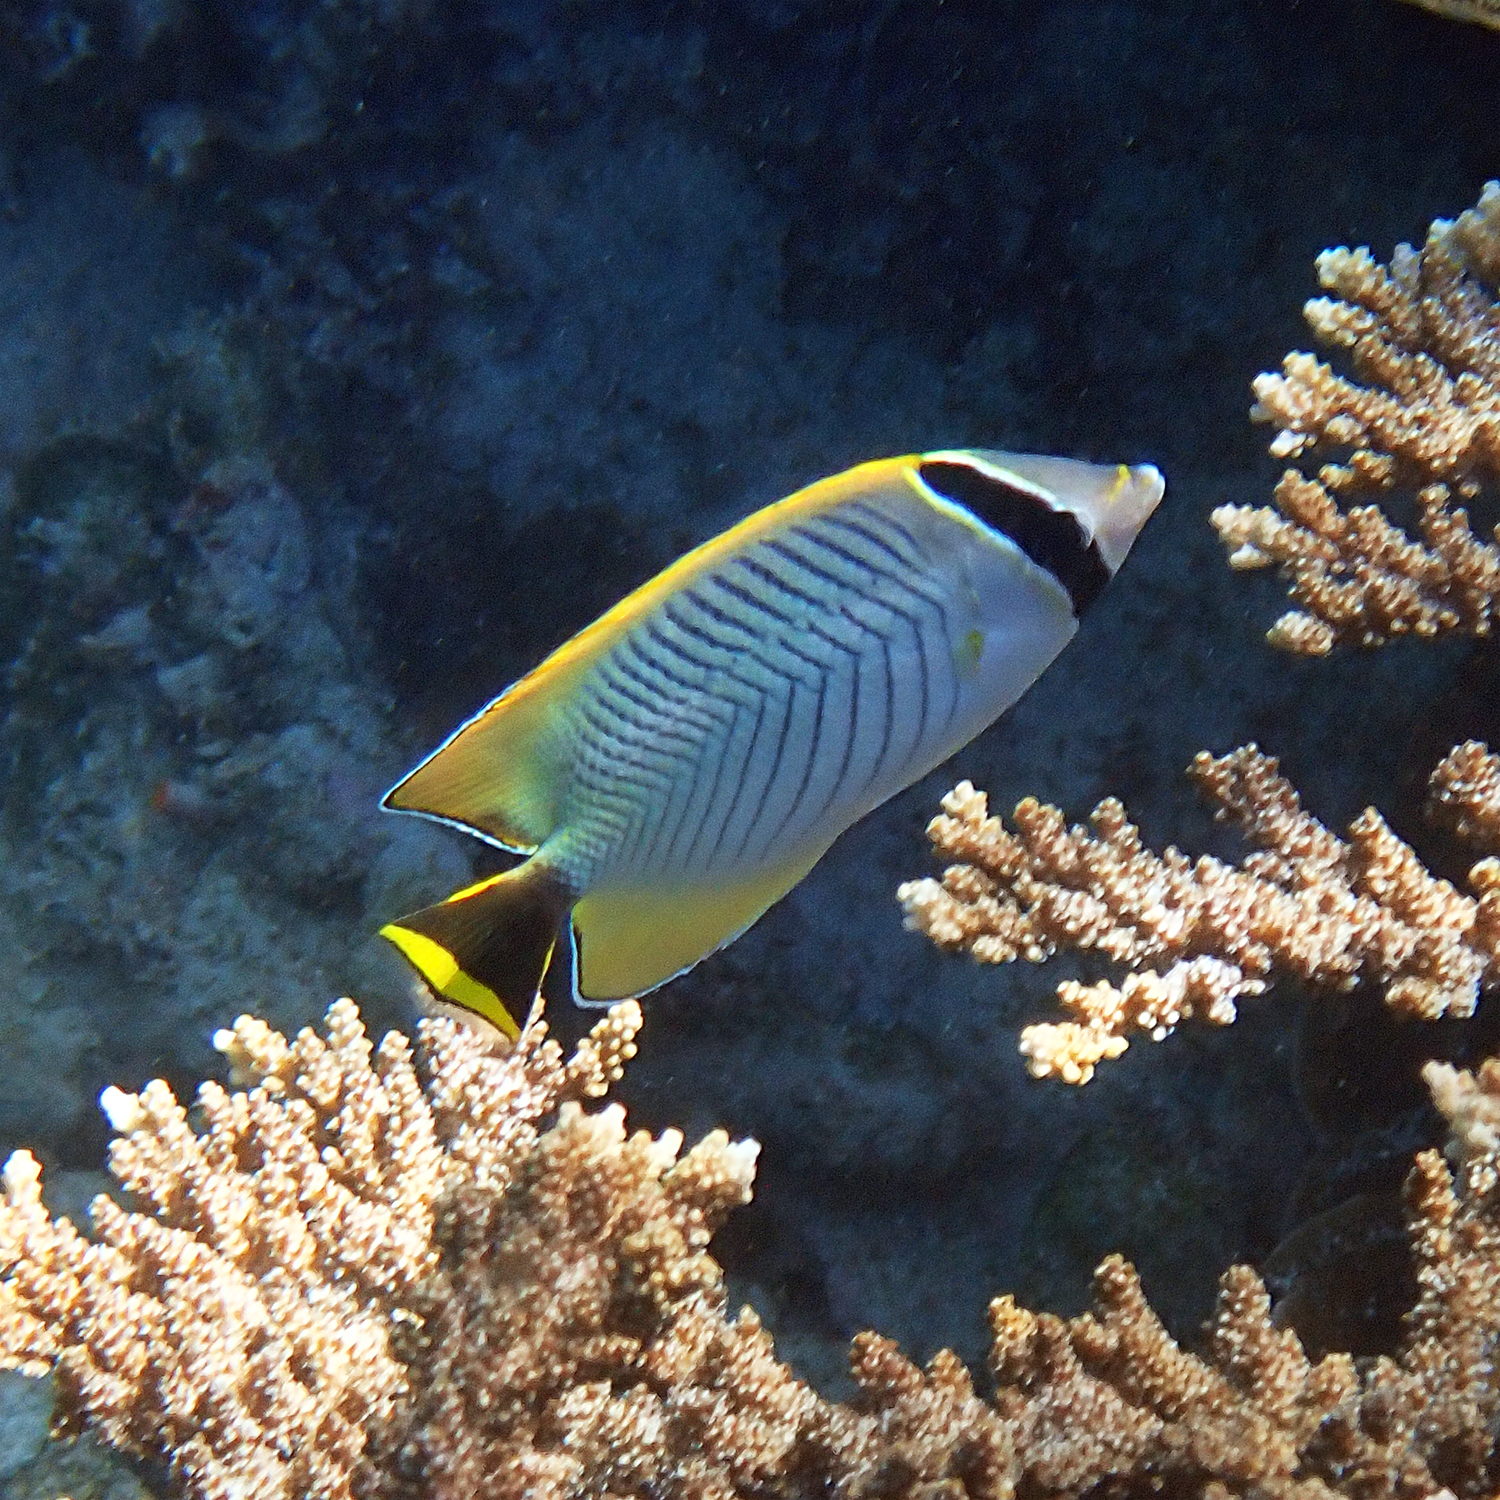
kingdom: Animalia
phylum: Chordata
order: Perciformes
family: Chaetodontidae
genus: Chaetodon
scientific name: Chaetodon trifascialis
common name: Chevroned butterflyfish
